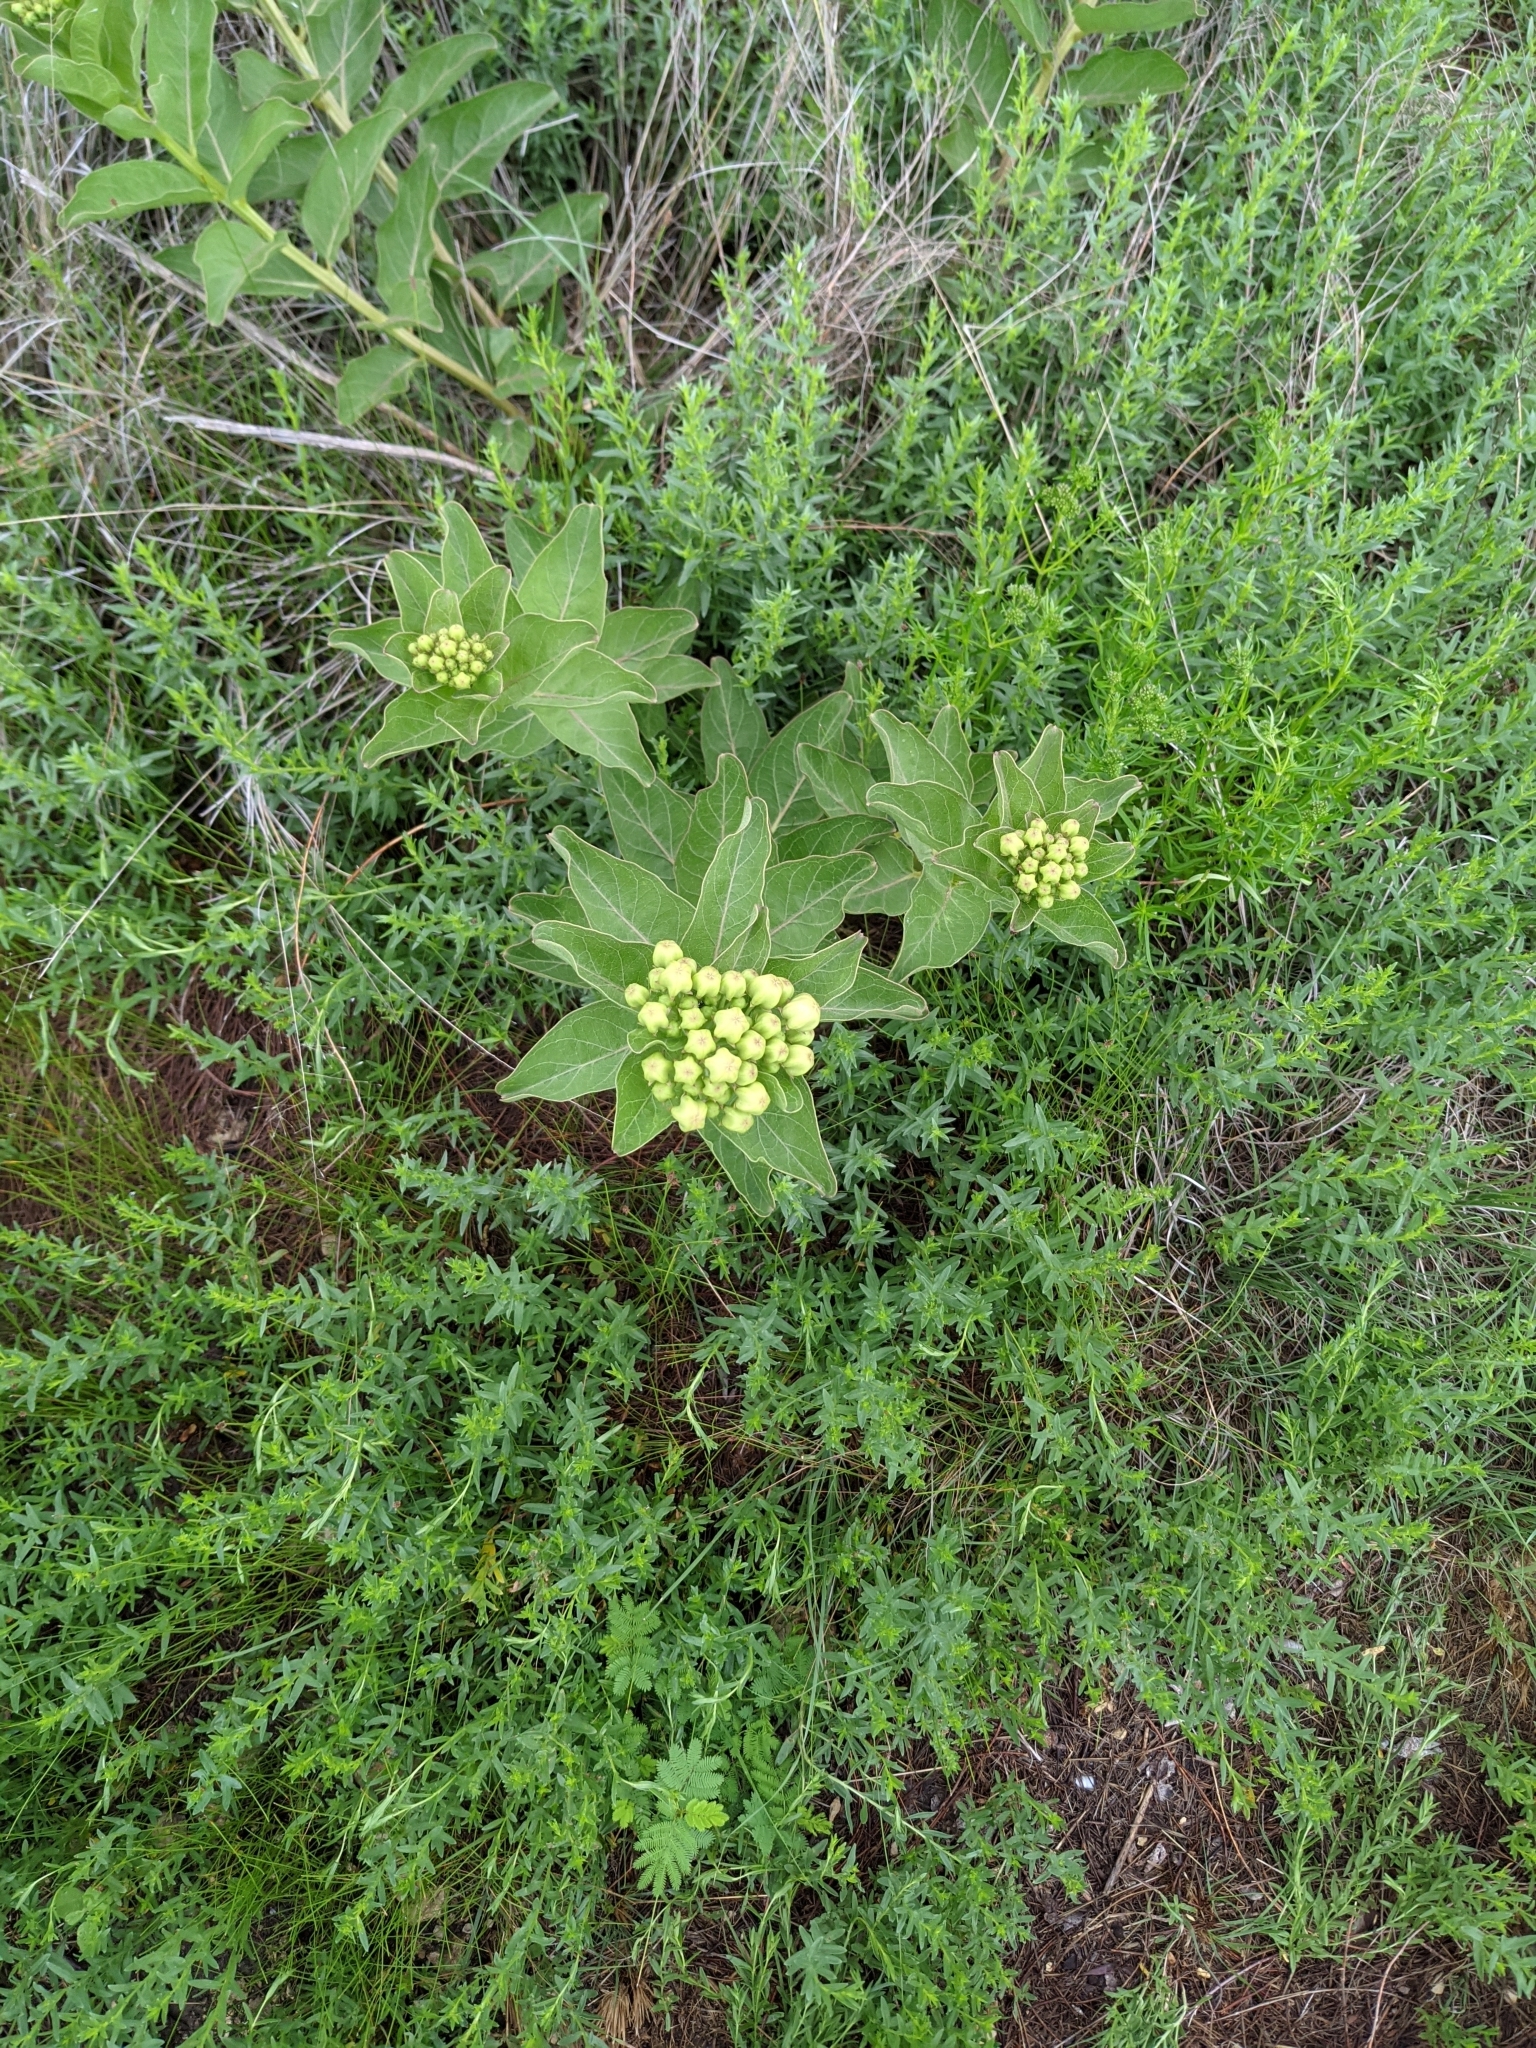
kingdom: Plantae
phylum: Tracheophyta
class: Magnoliopsida
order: Gentianales
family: Apocynaceae
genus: Asclepias
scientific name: Asclepias viridis
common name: Antelope-horns
